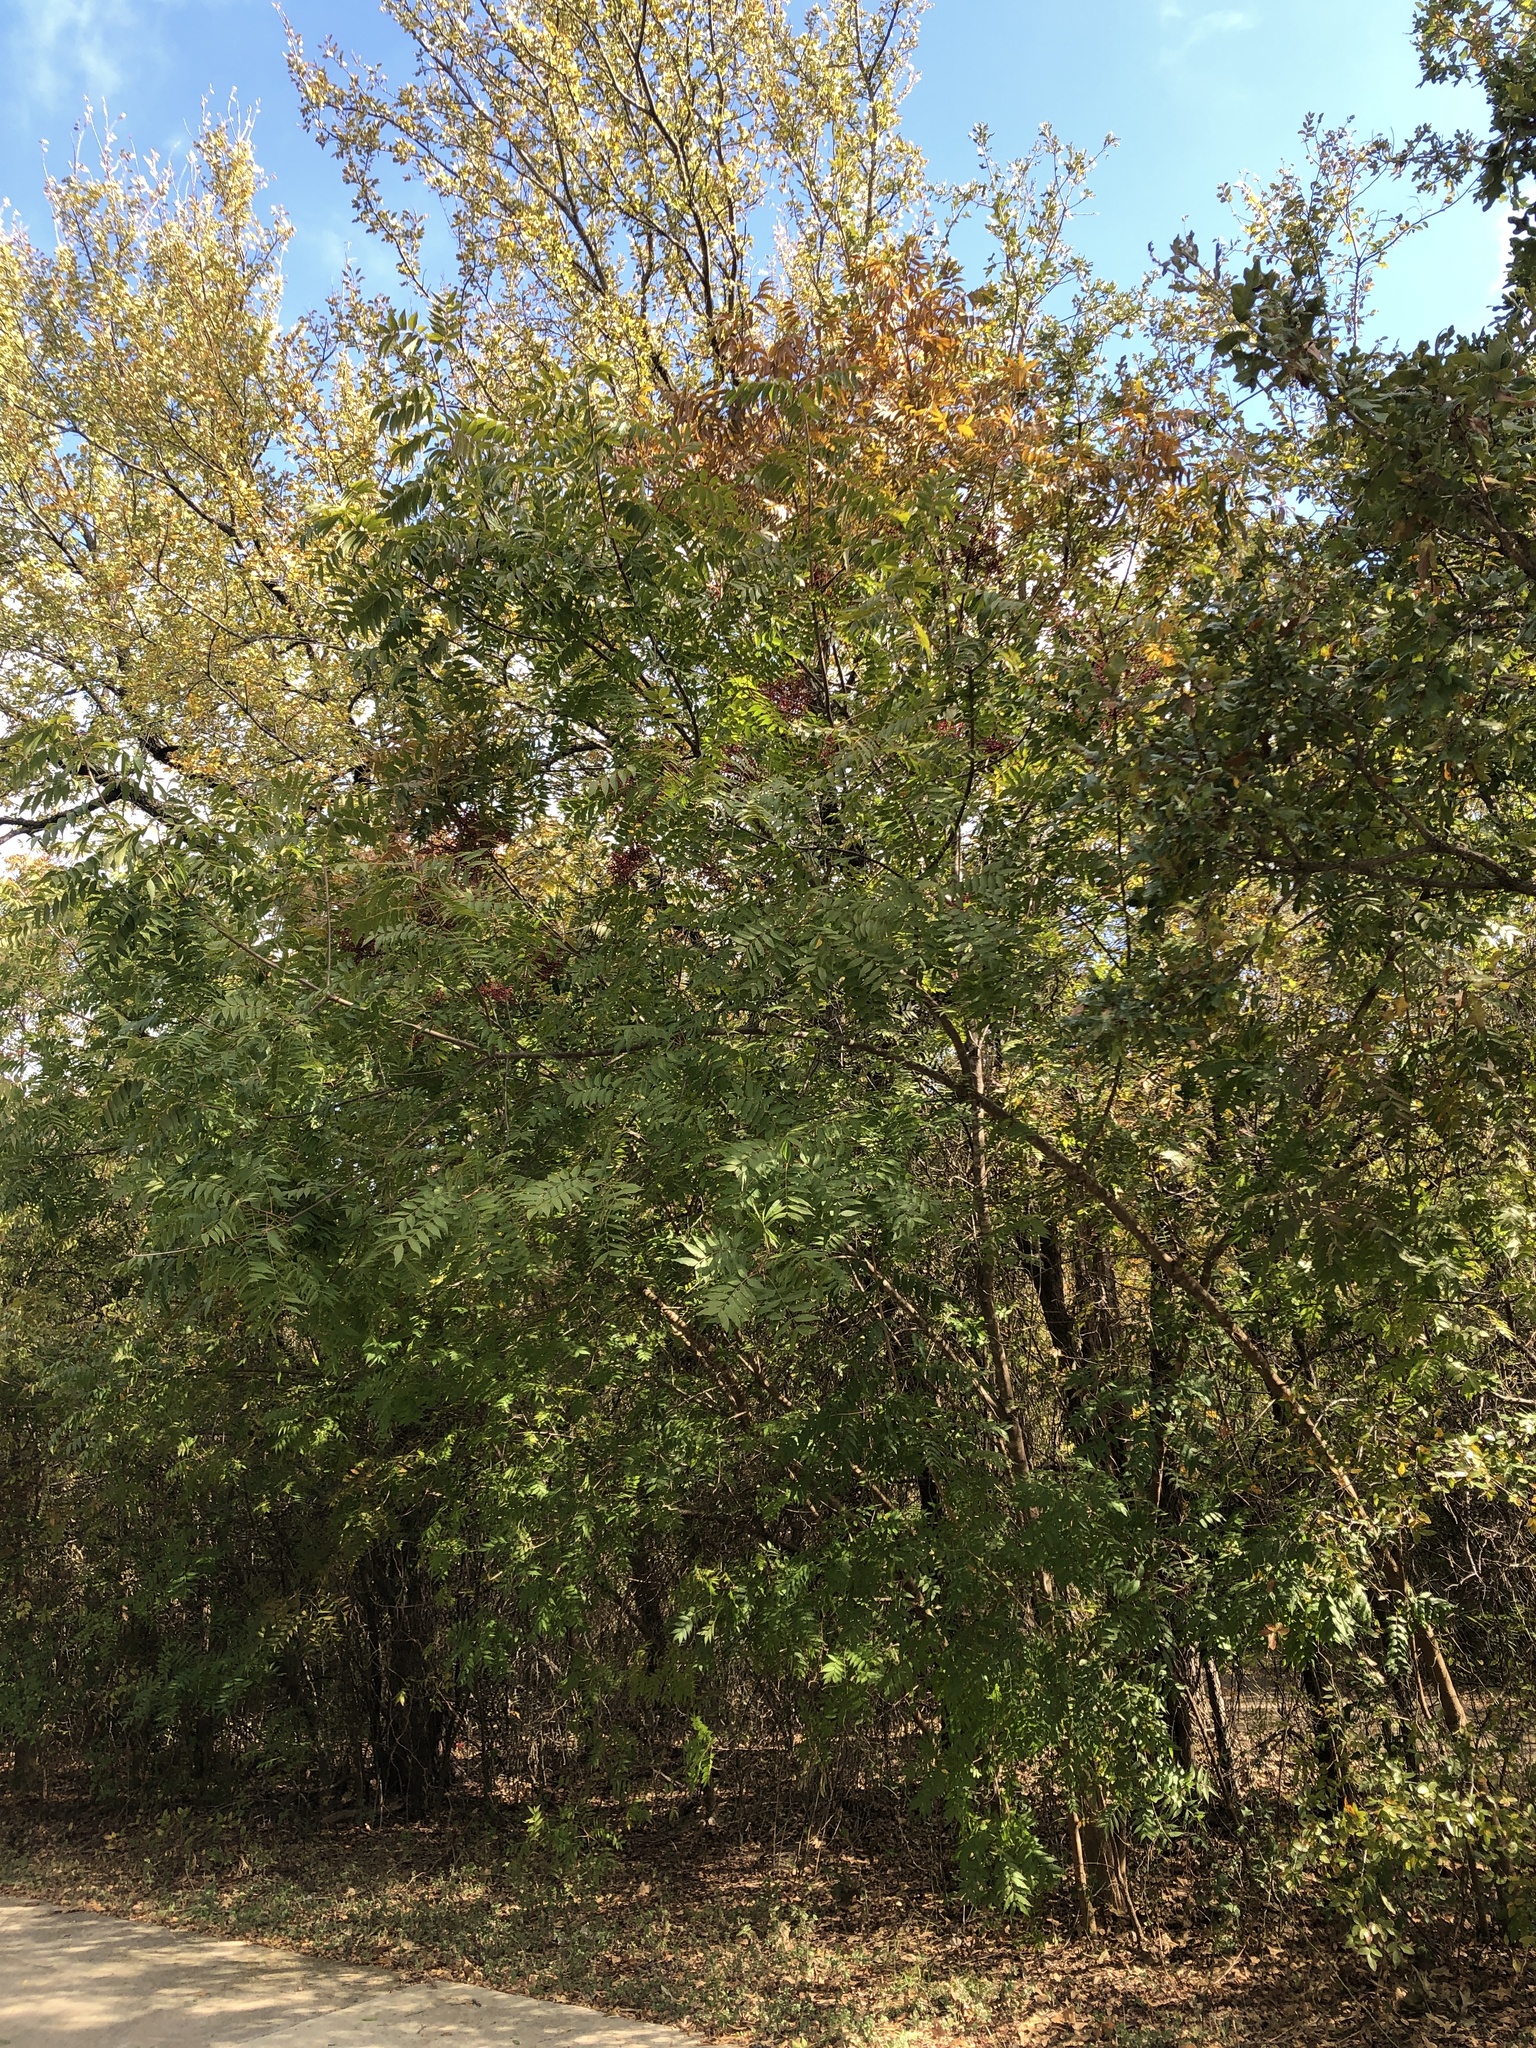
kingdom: Plantae
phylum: Tracheophyta
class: Magnoliopsida
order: Sapindales
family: Anacardiaceae
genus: Pistacia
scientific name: Pistacia chinensis
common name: Chinese pistache
